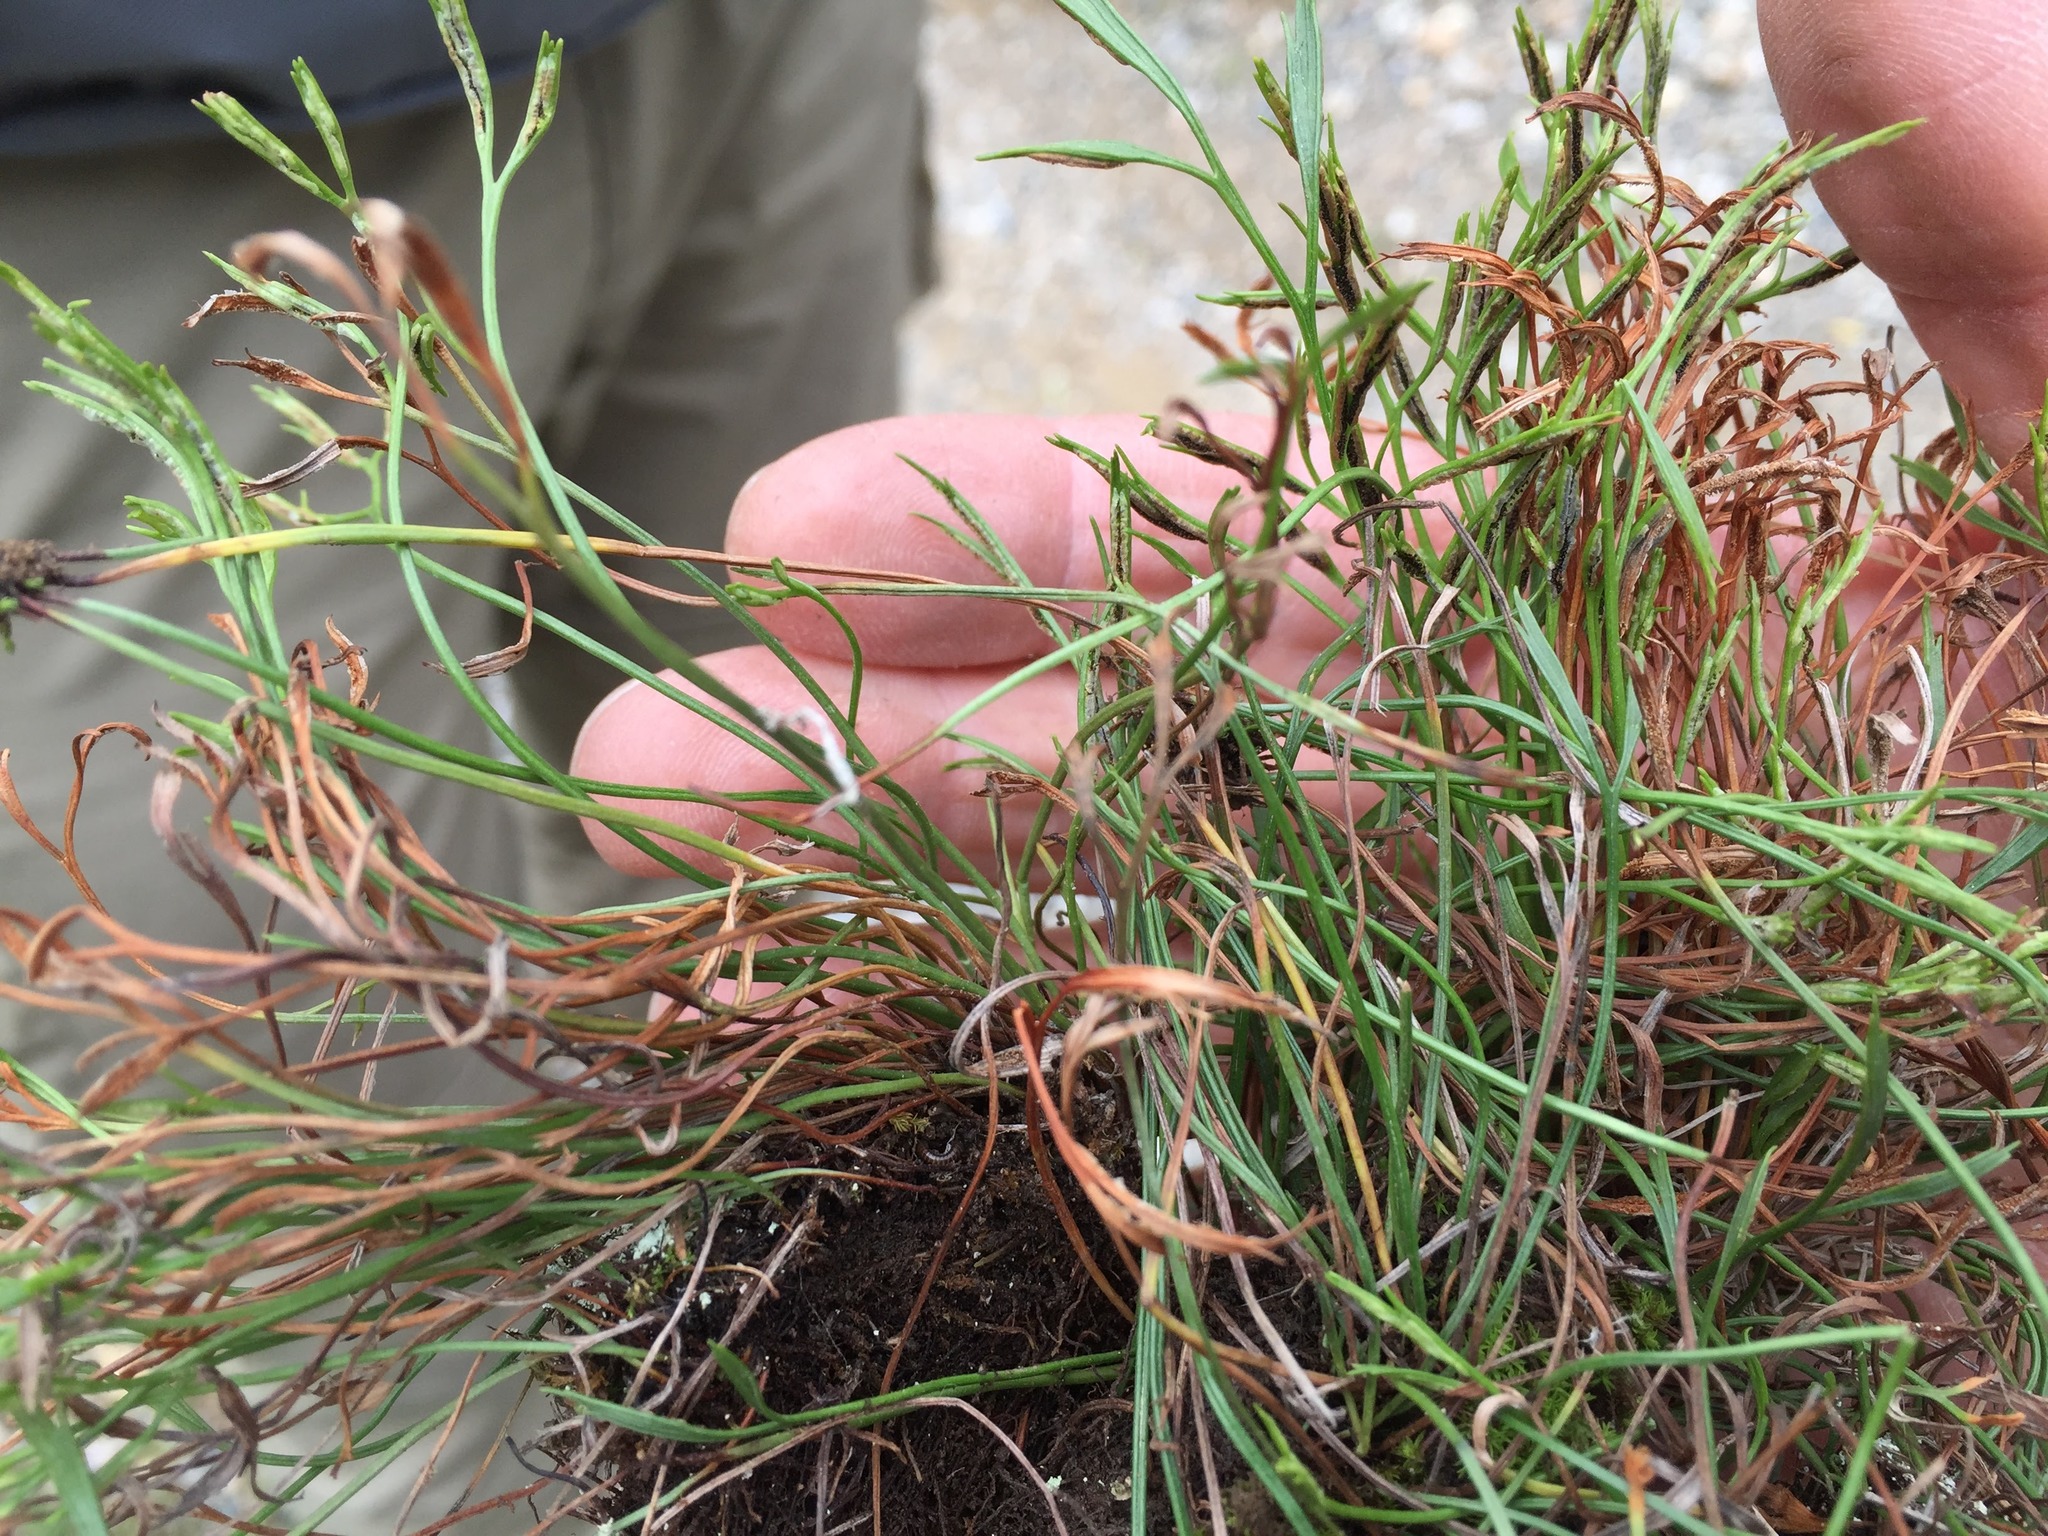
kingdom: Plantae
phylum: Tracheophyta
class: Polypodiopsida
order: Polypodiales
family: Aspleniaceae
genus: Asplenium
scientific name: Asplenium septentrionale
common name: Forked spleenwort
